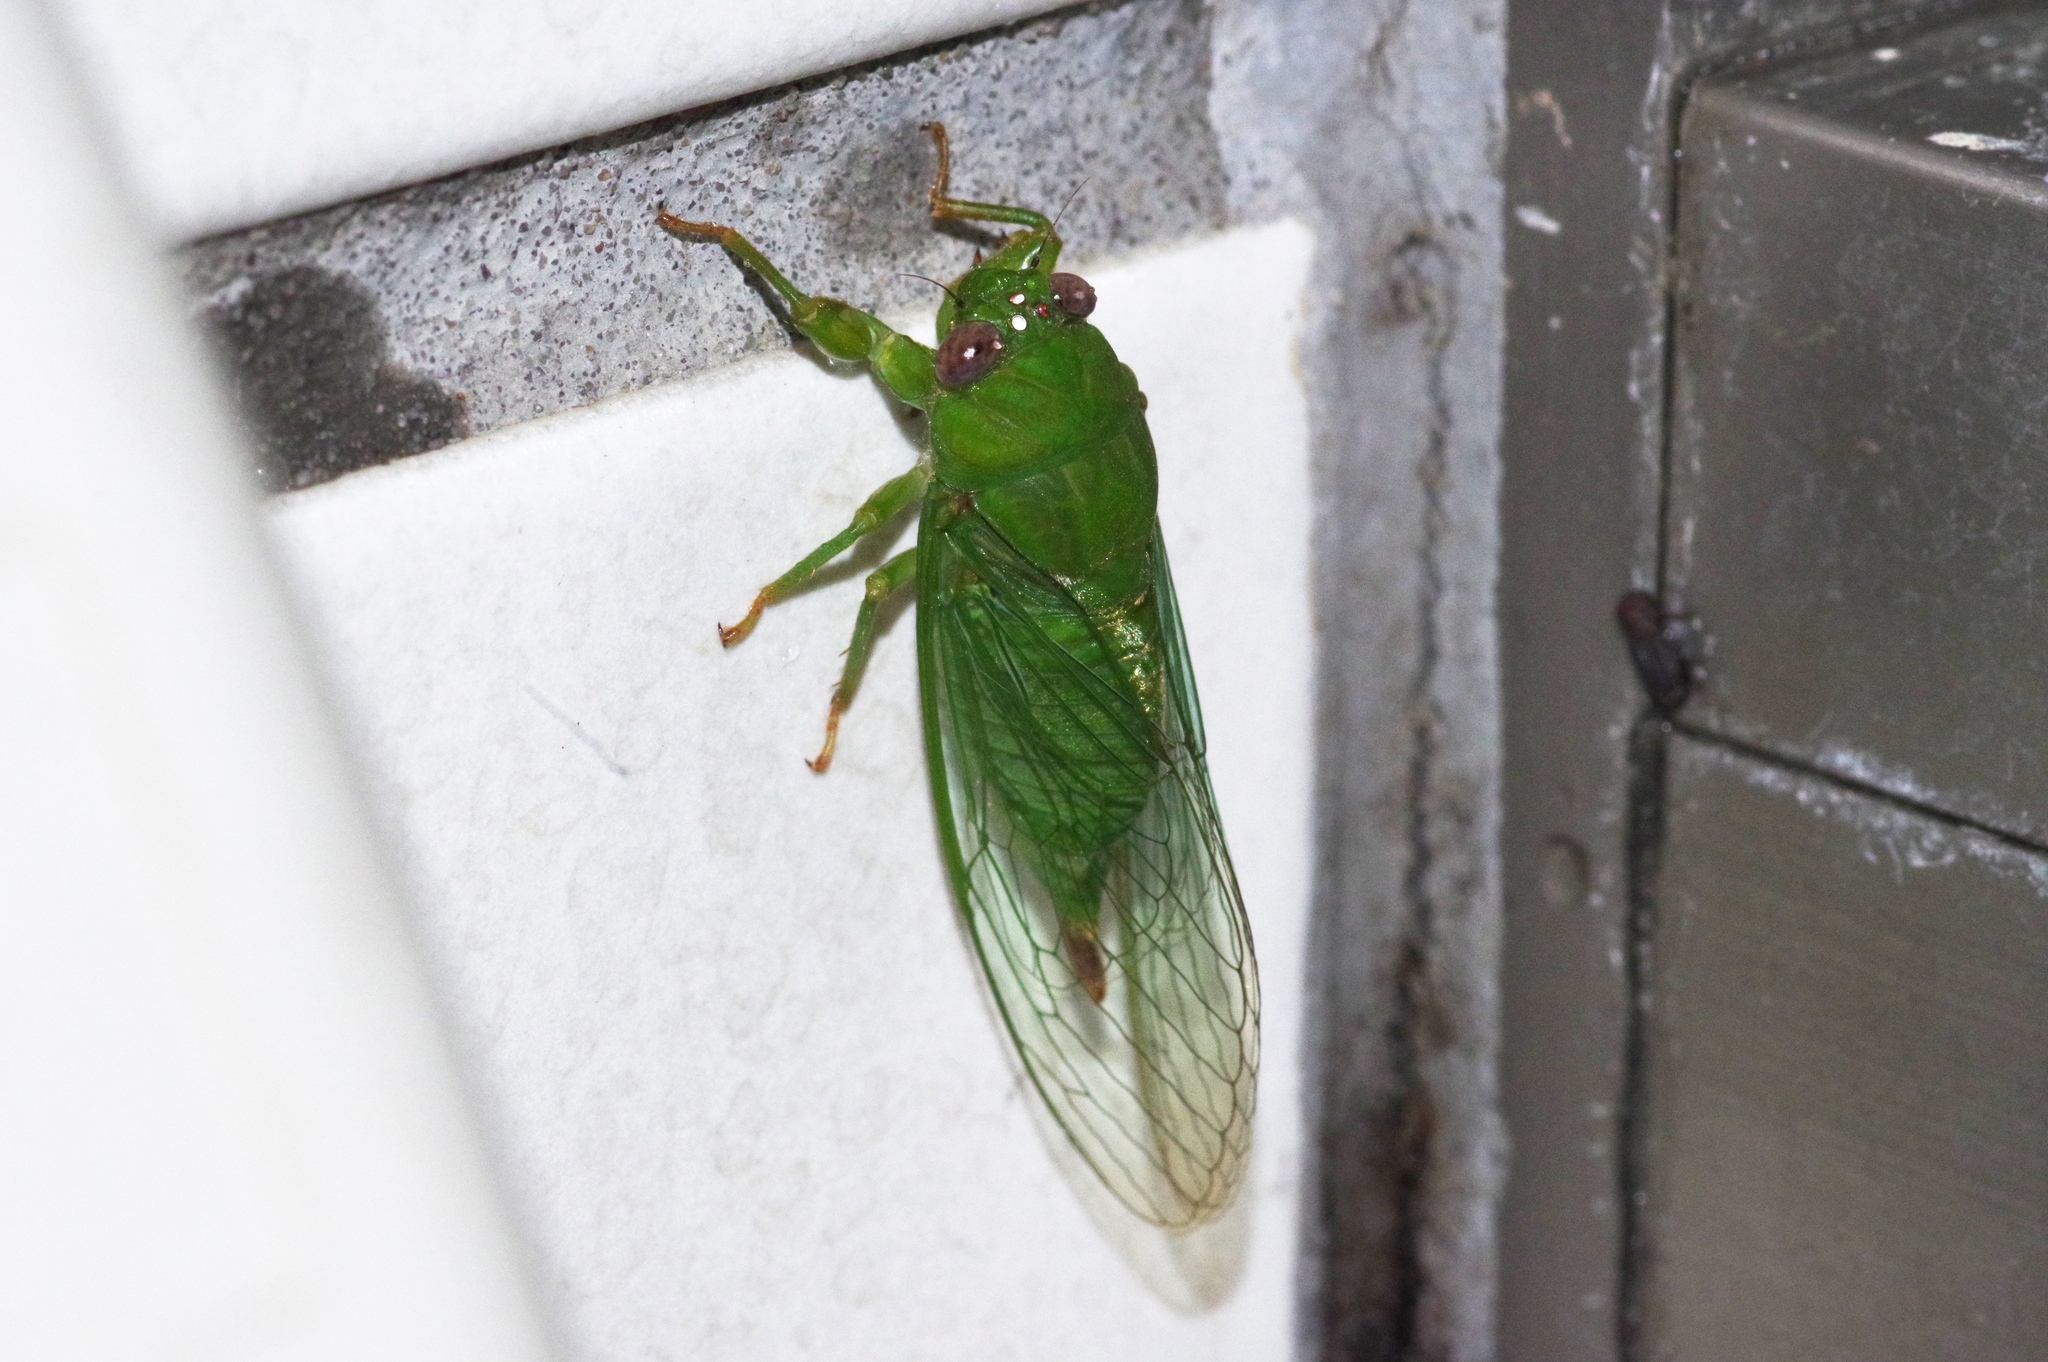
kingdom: Animalia
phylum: Arthropoda
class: Insecta
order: Hemiptera
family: Cicadidae
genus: Muda
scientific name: Muda kuroiwae
